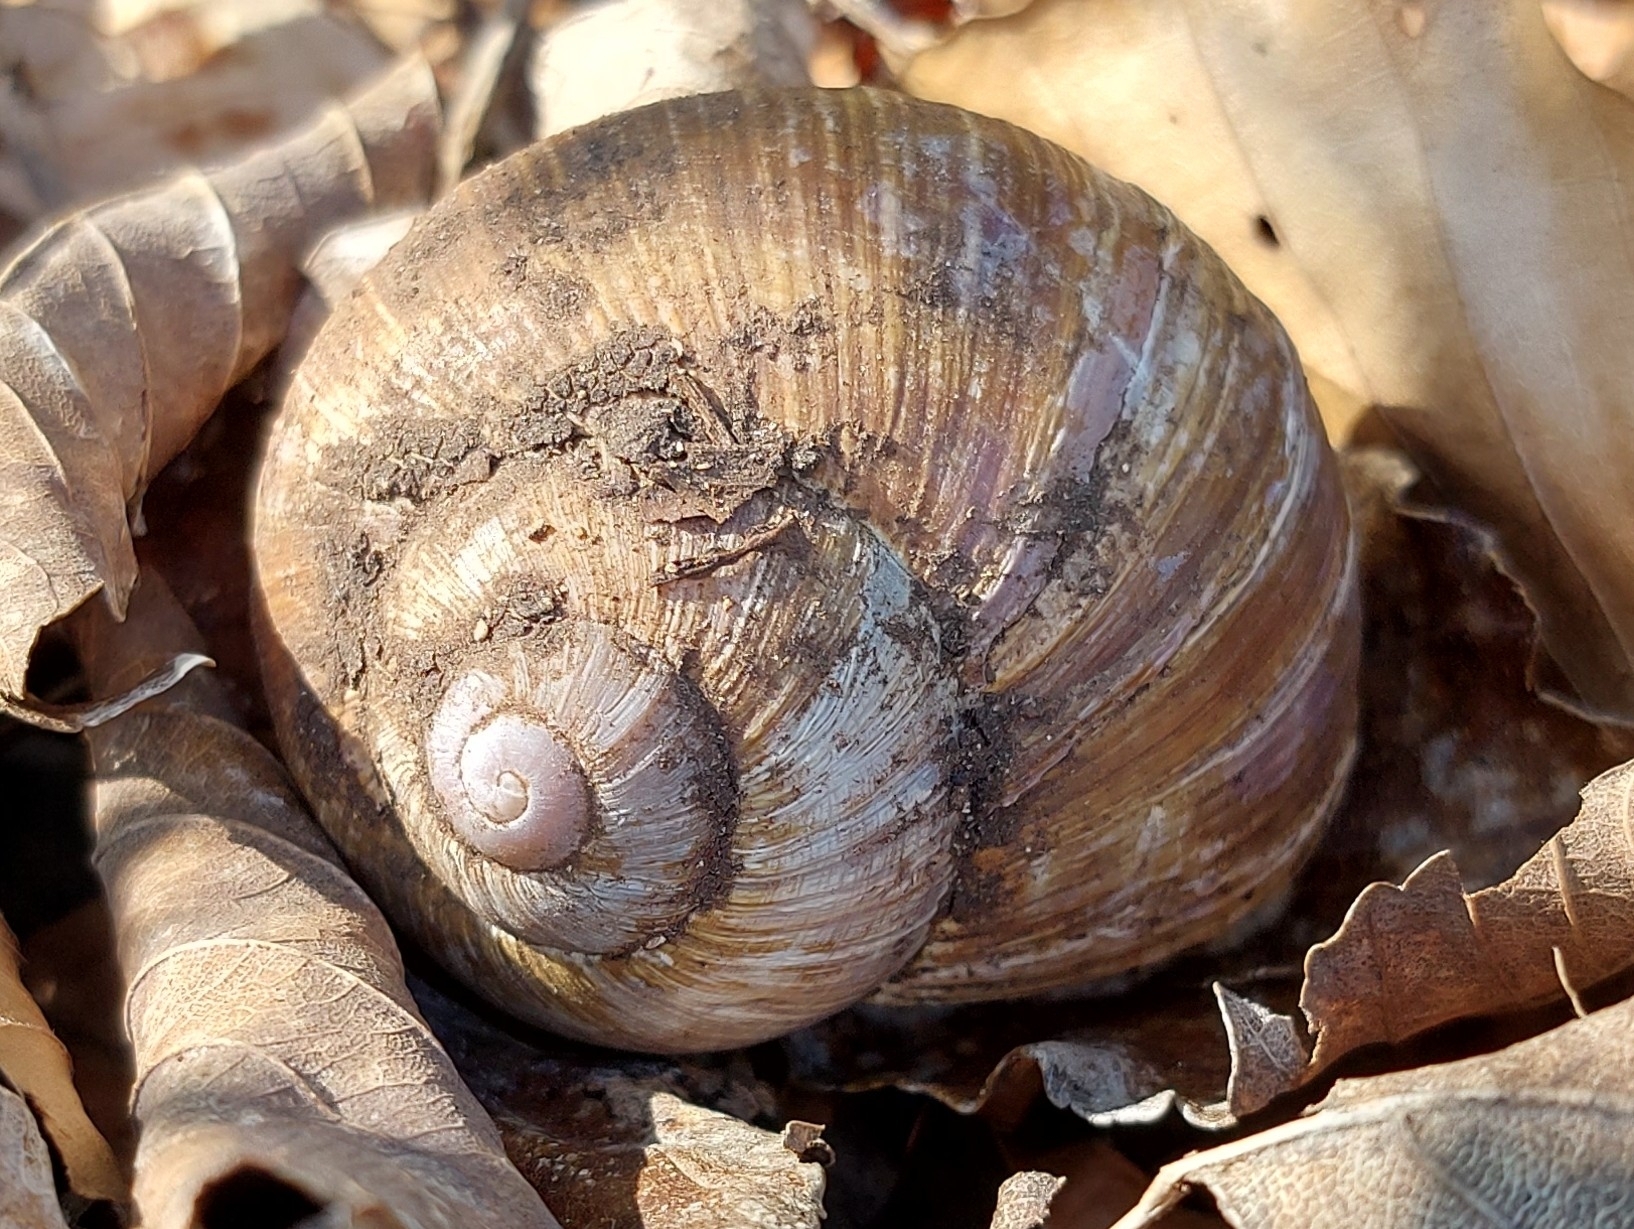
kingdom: Animalia
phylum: Mollusca
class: Gastropoda
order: Stylommatophora
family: Helicidae
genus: Helix
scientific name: Helix pomatia
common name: Roman snail
